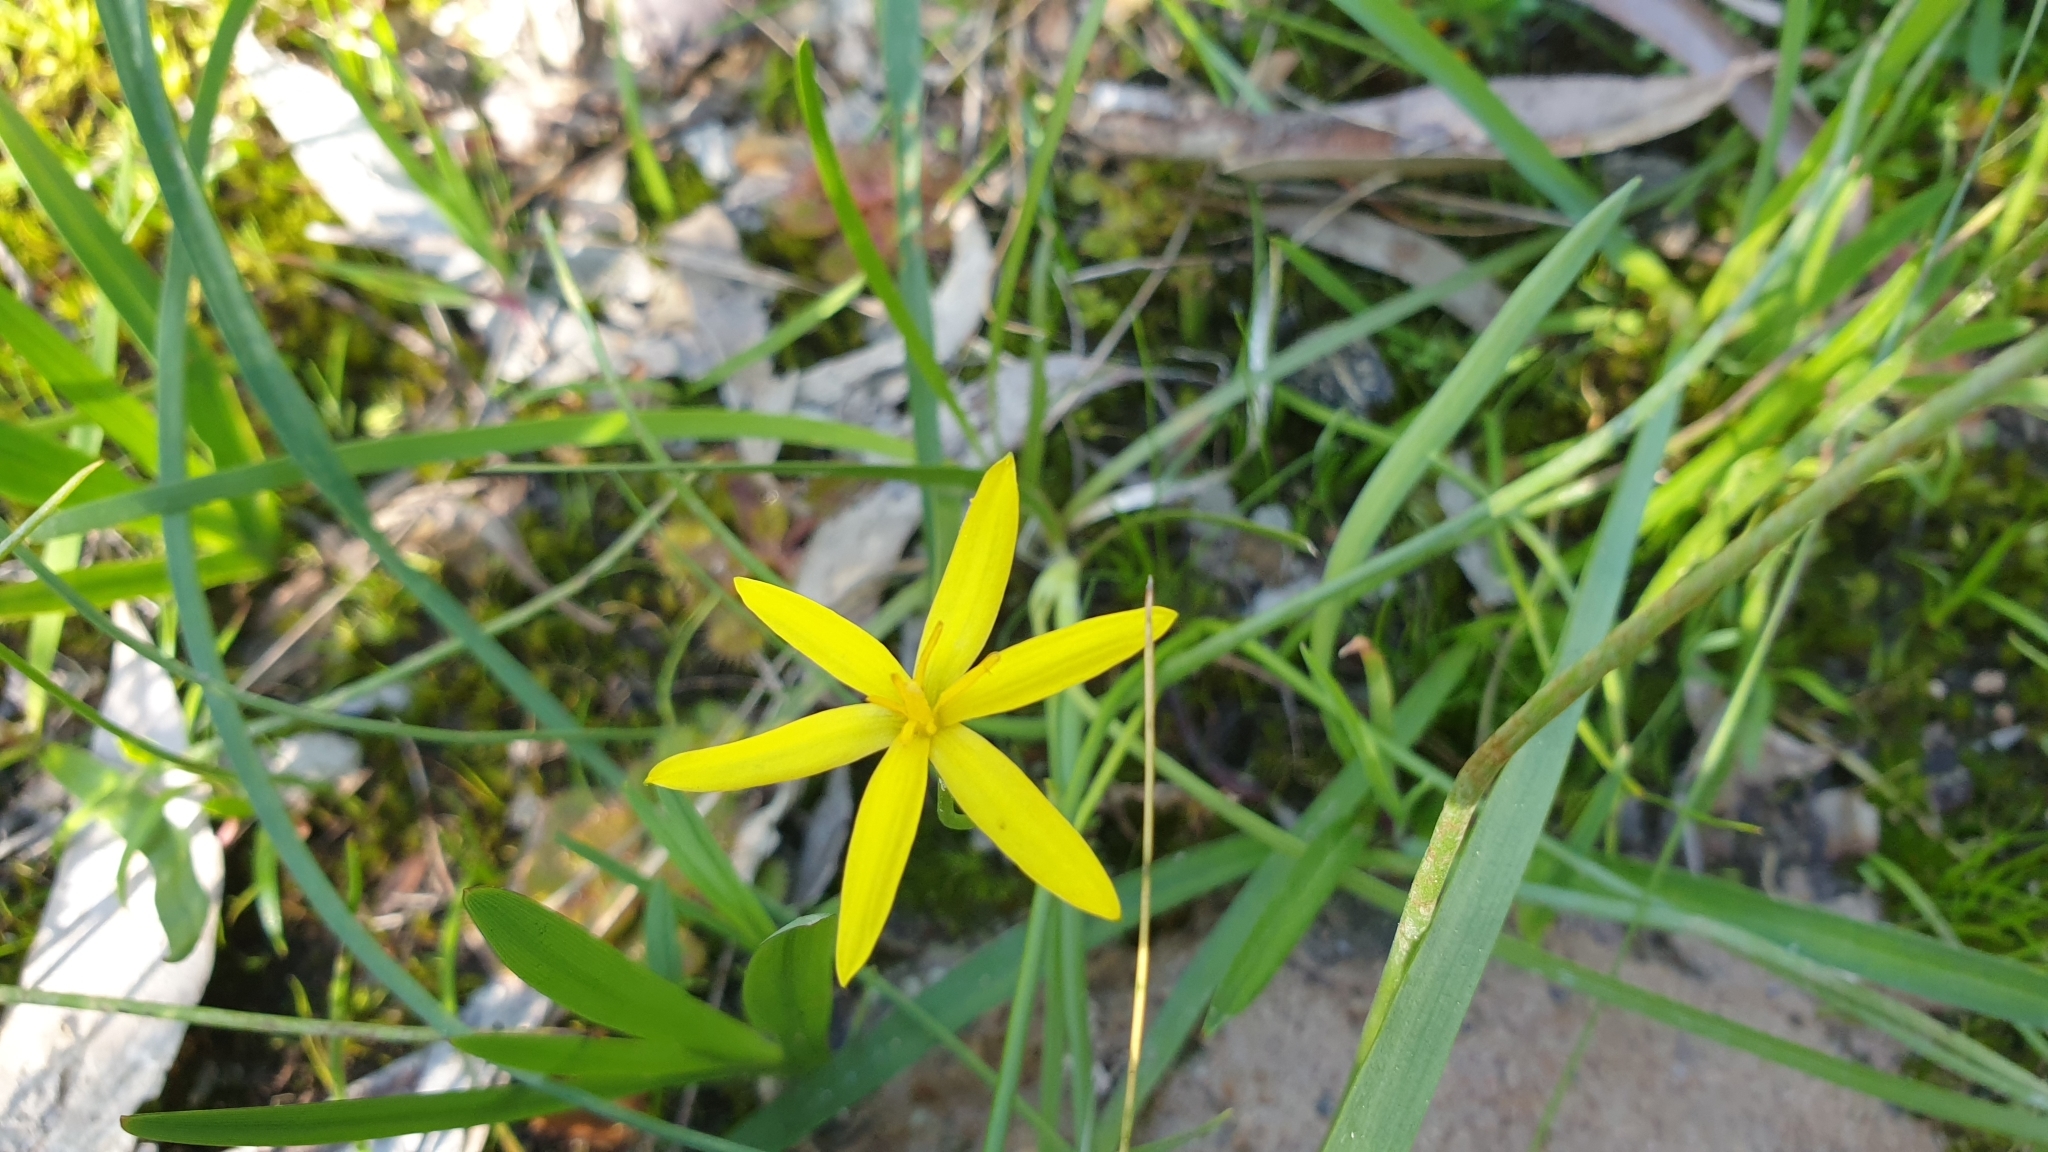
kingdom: Plantae
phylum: Tracheophyta
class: Liliopsida
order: Asparagales
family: Hypoxidaceae
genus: Pauridia
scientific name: Pauridia vaginata
